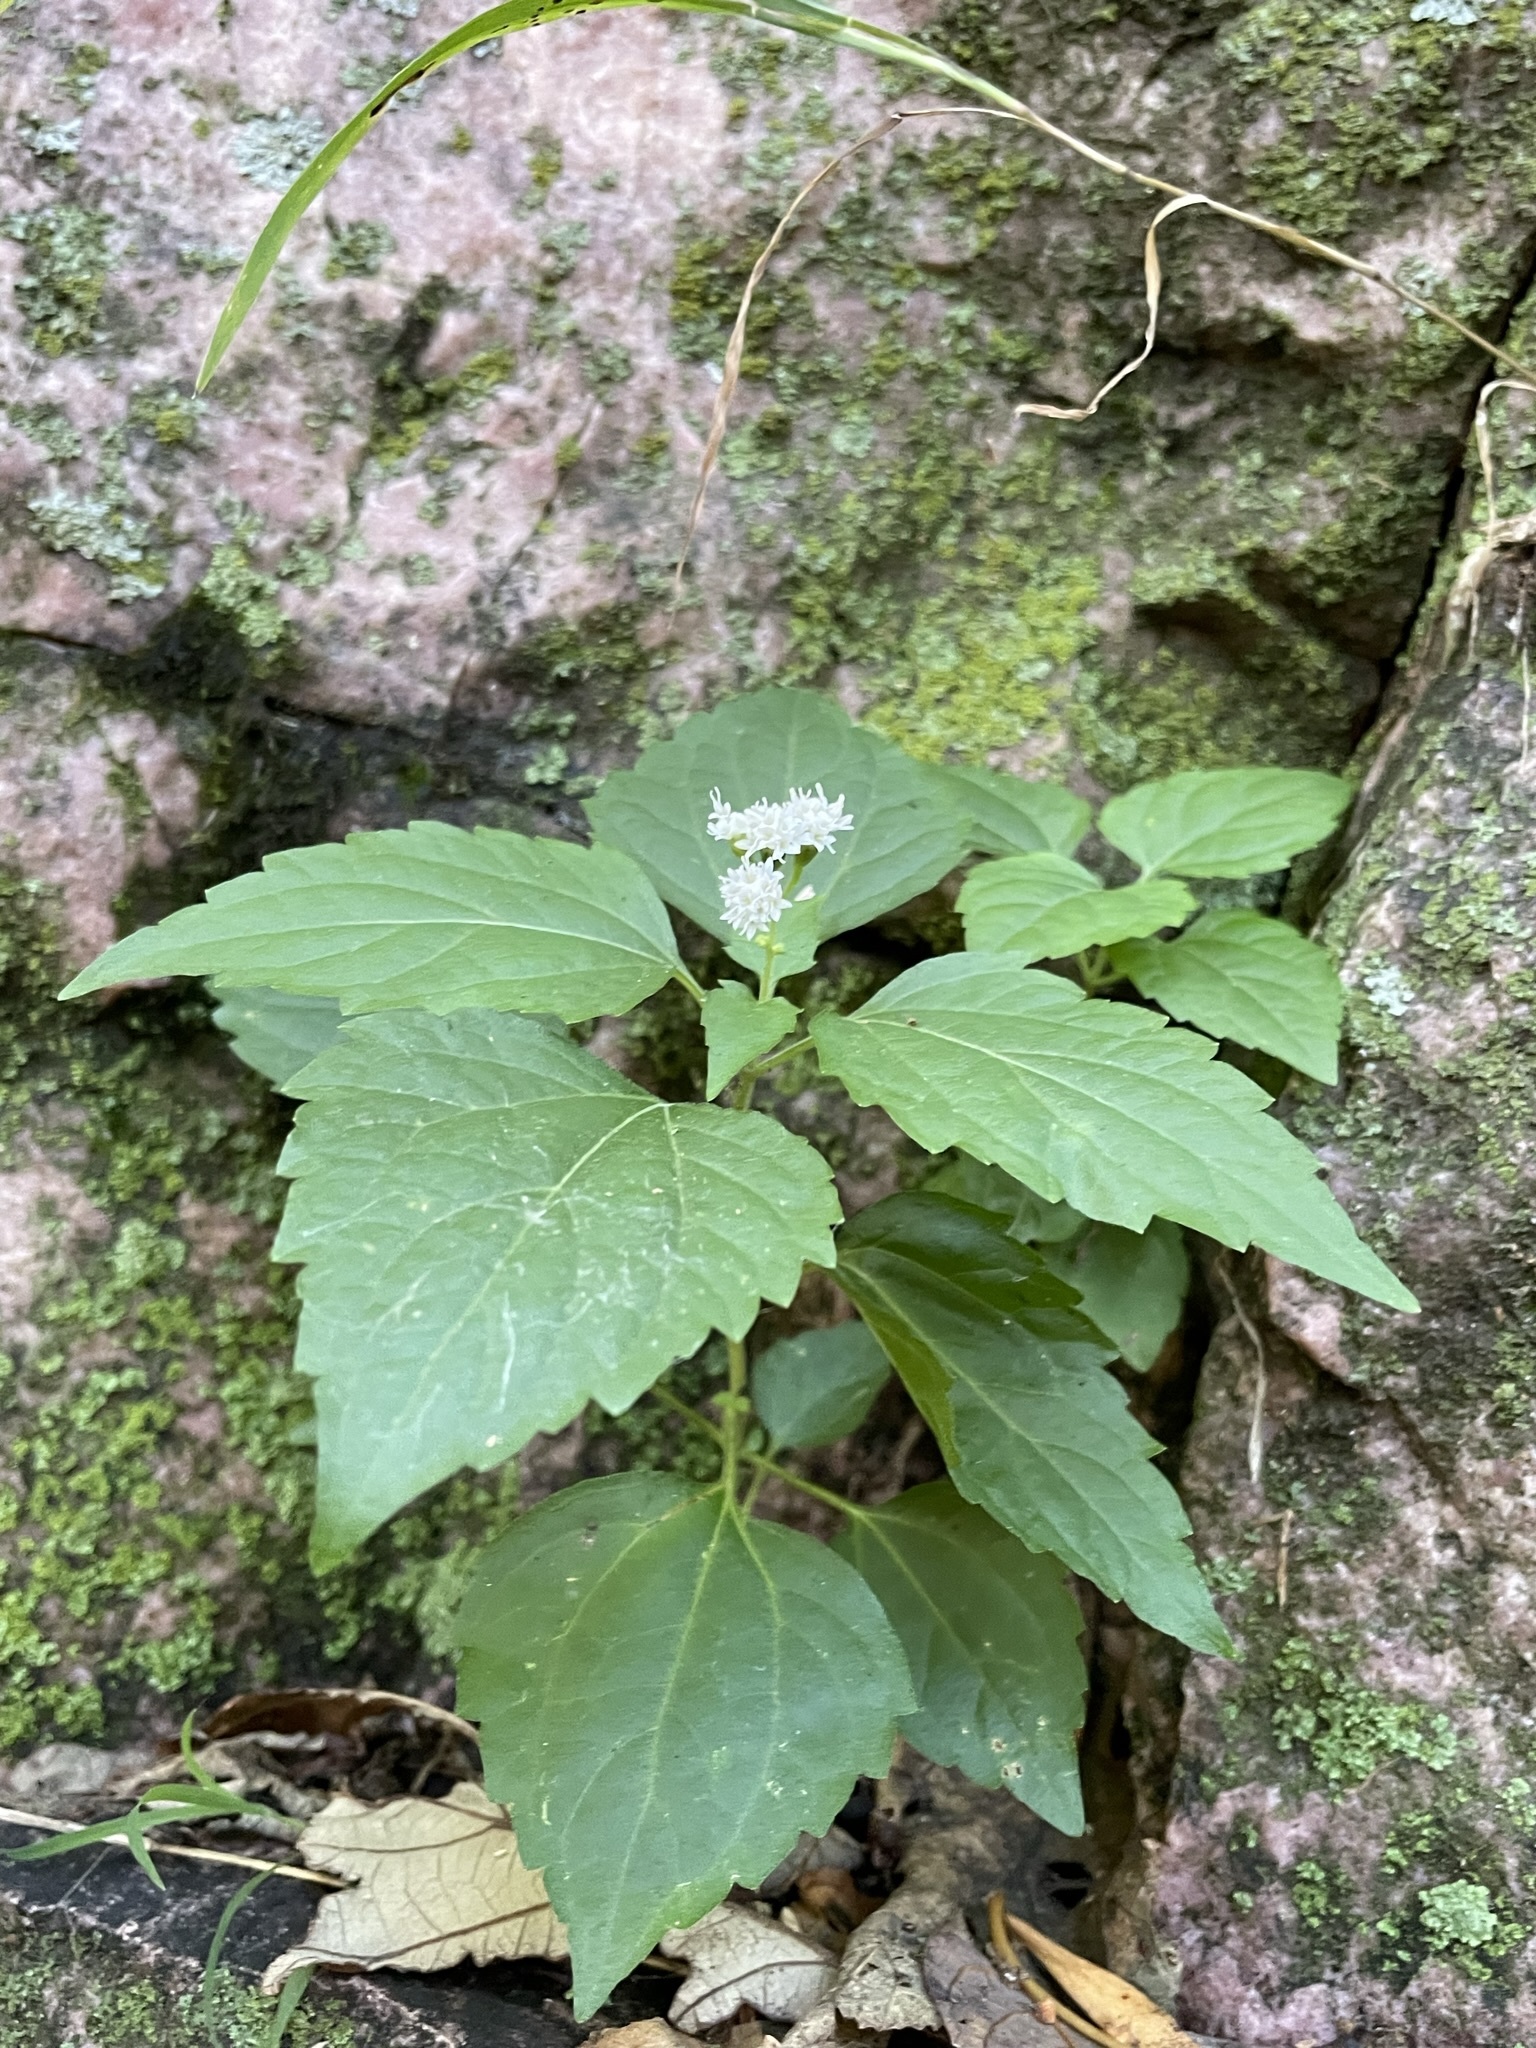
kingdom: Plantae
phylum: Tracheophyta
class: Magnoliopsida
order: Asterales
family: Asteraceae
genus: Ageratina
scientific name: Ageratina altissima
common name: White snakeroot
